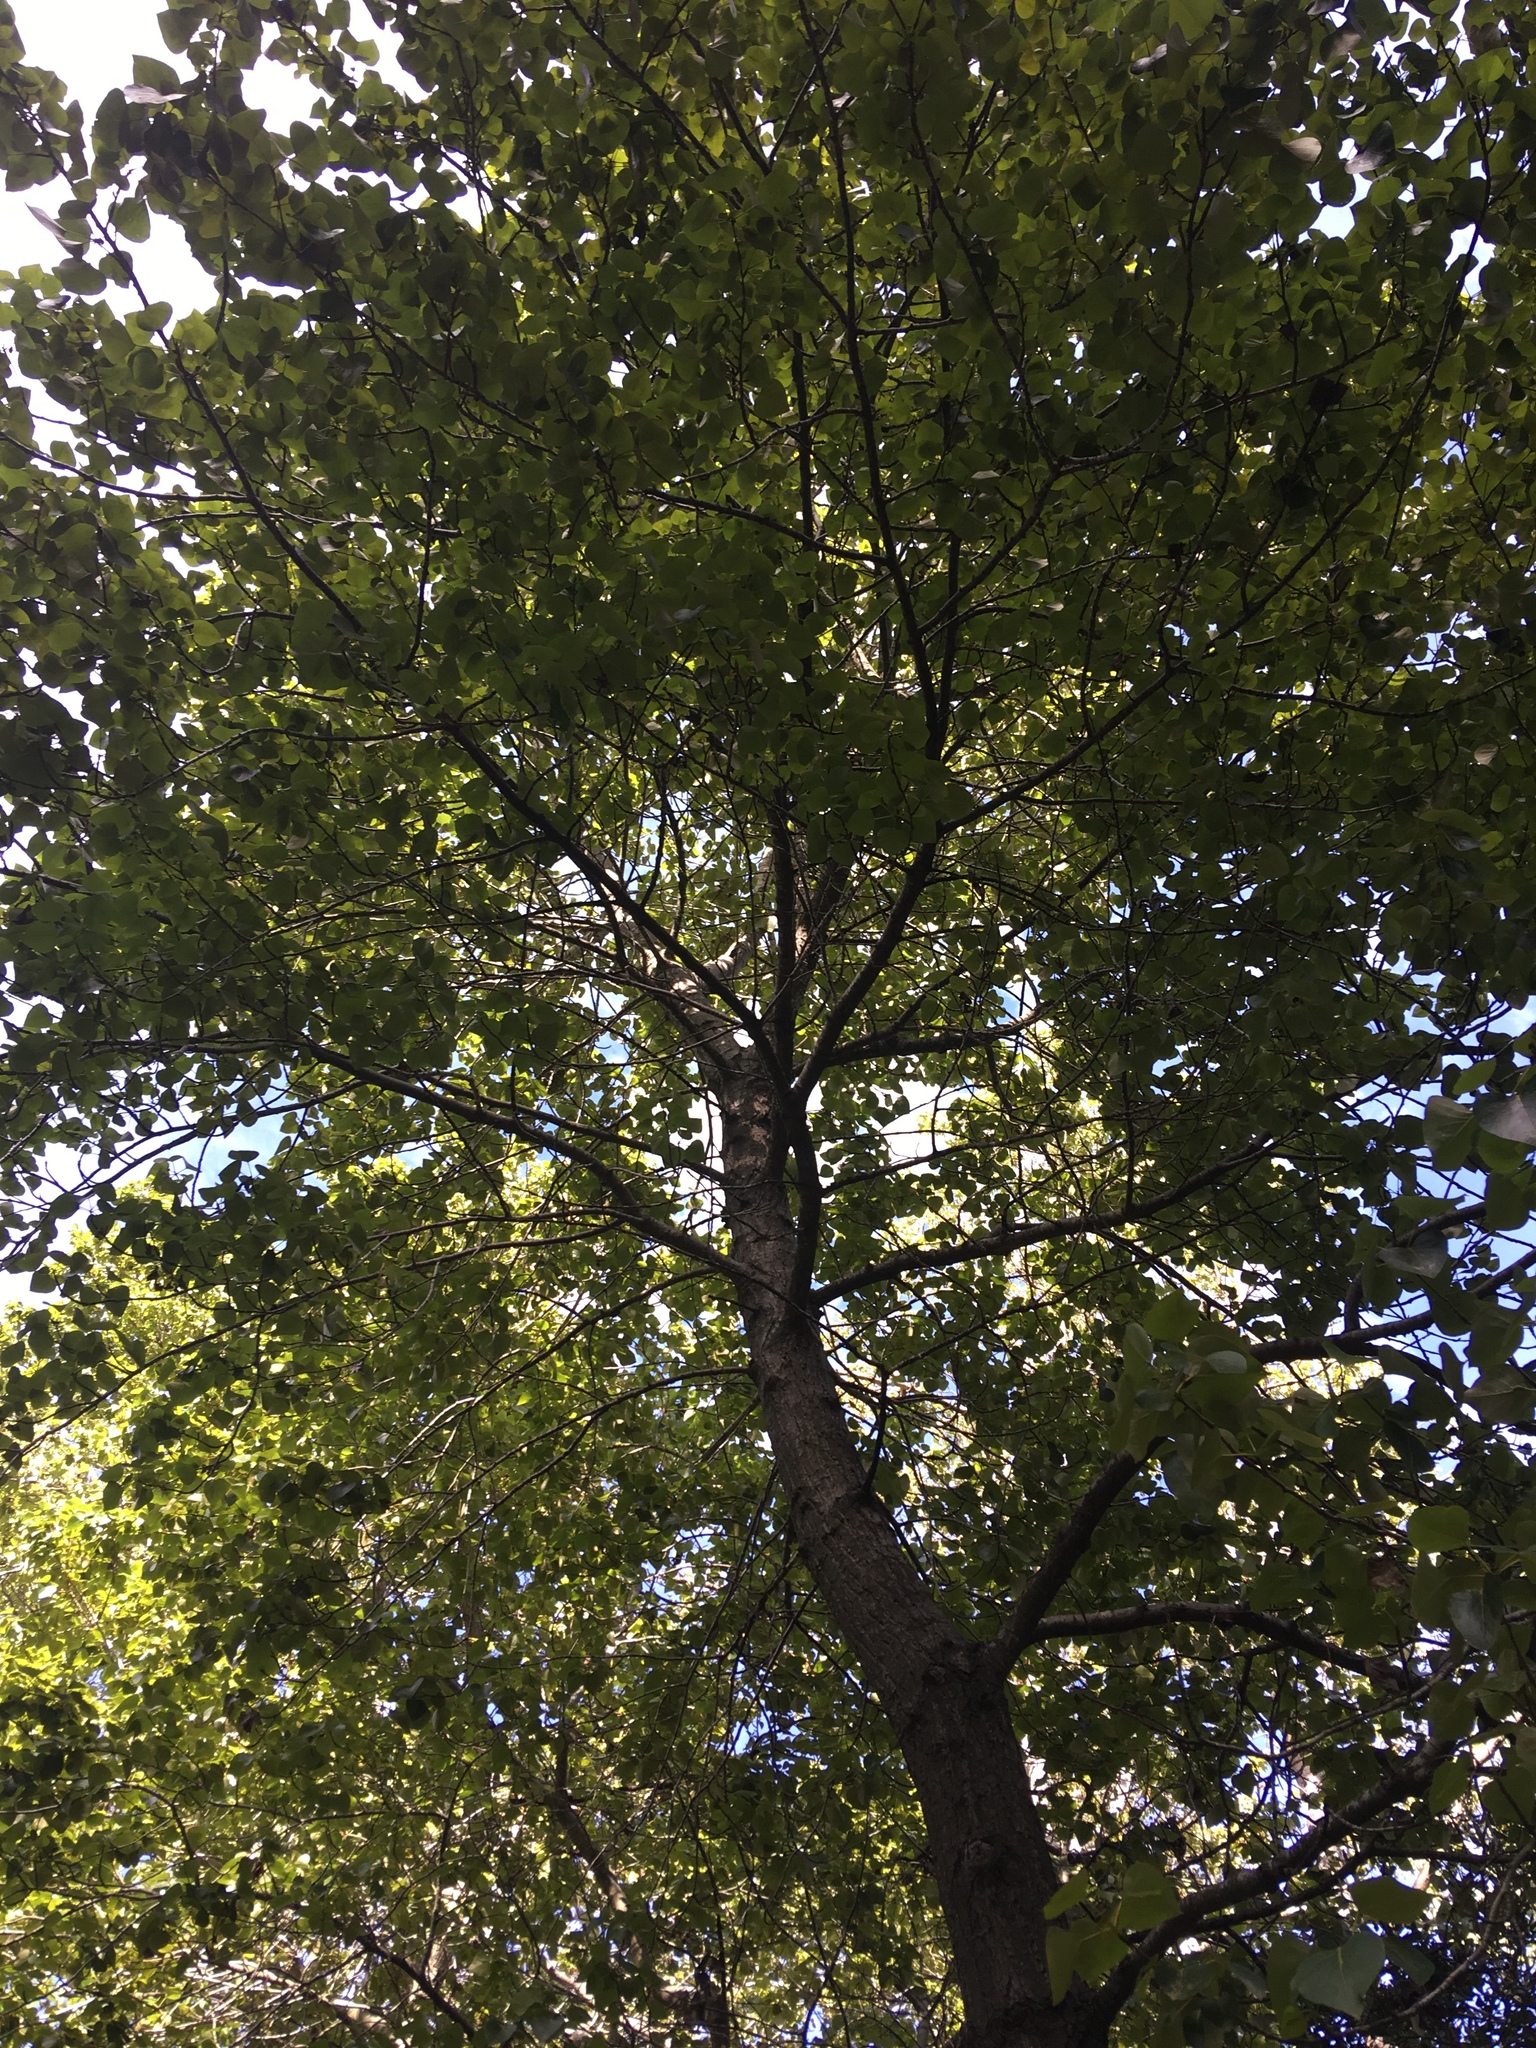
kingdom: Plantae
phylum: Tracheophyta
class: Magnoliopsida
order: Malpighiales
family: Salicaceae
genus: Populus
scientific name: Populus trichocarpa
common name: Black cottonwood
